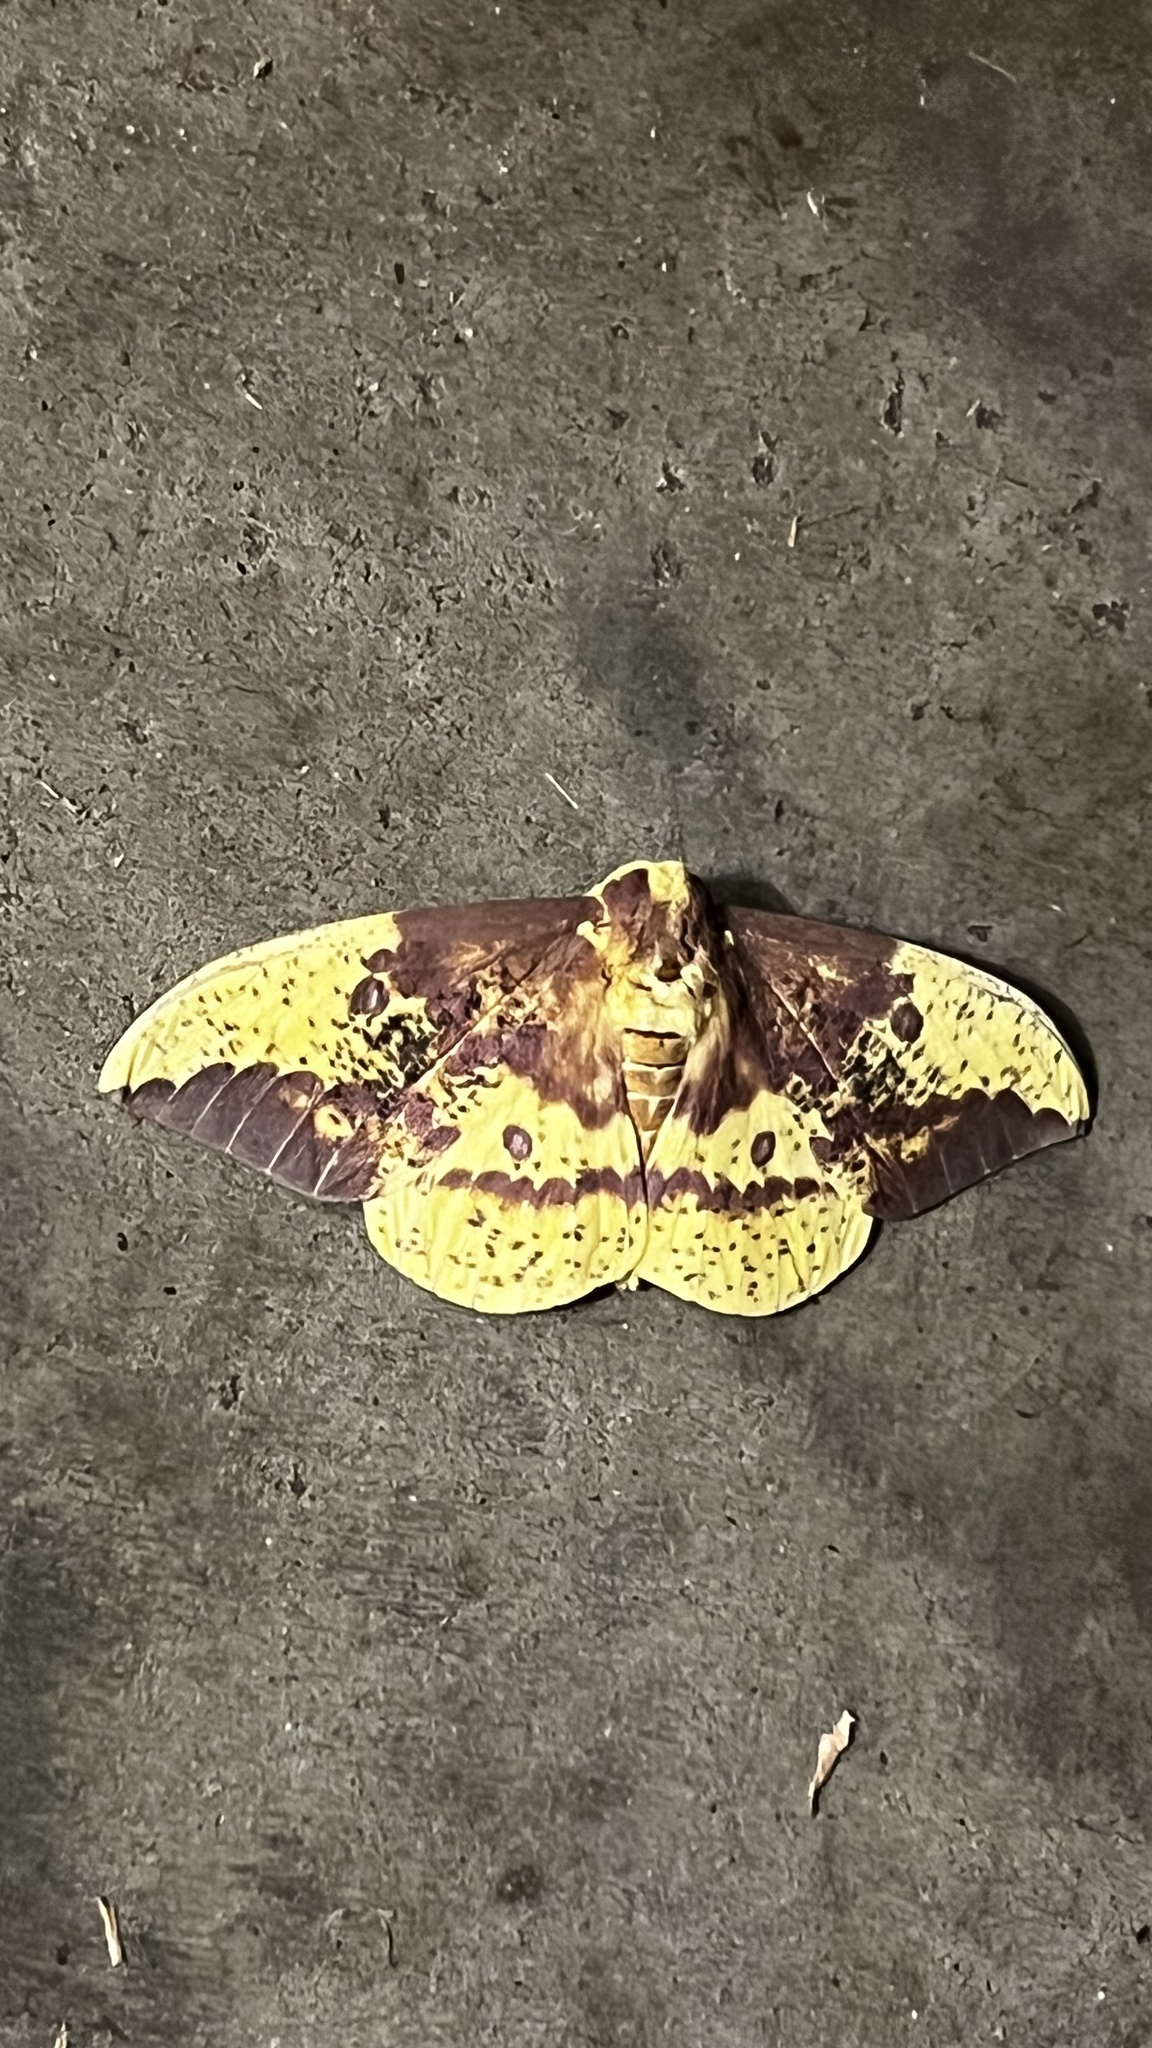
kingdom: Animalia
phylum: Arthropoda
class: Insecta
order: Lepidoptera
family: Saturniidae
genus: Eacles
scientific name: Eacles imperialis
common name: Imperial moth
